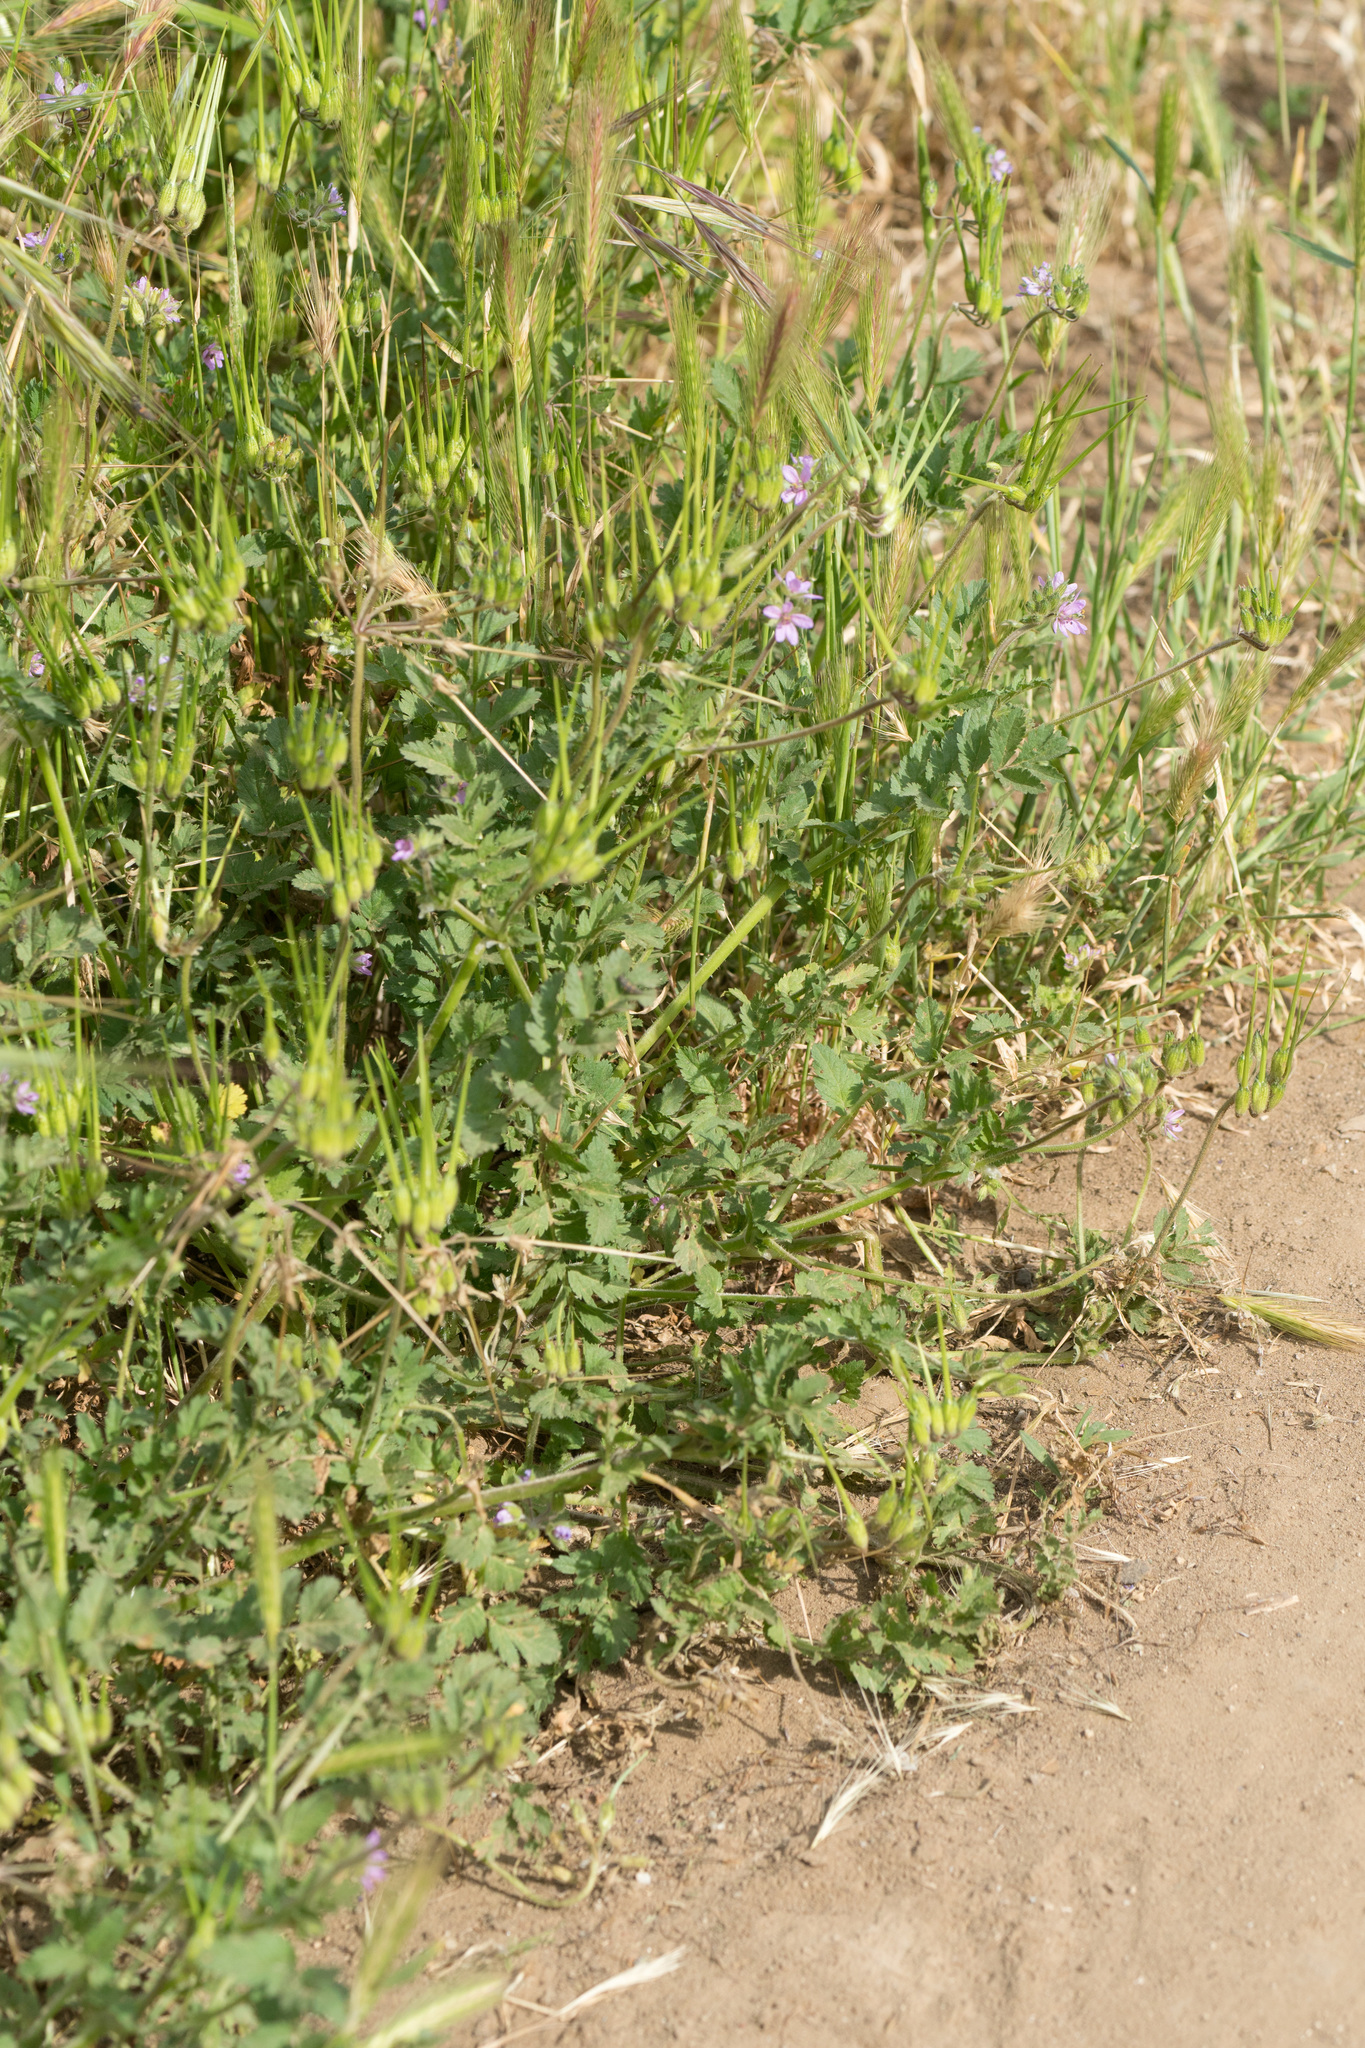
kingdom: Plantae
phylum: Tracheophyta
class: Magnoliopsida
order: Geraniales
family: Geraniaceae
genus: Erodium
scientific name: Erodium moschatum
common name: Musk stork's-bill
